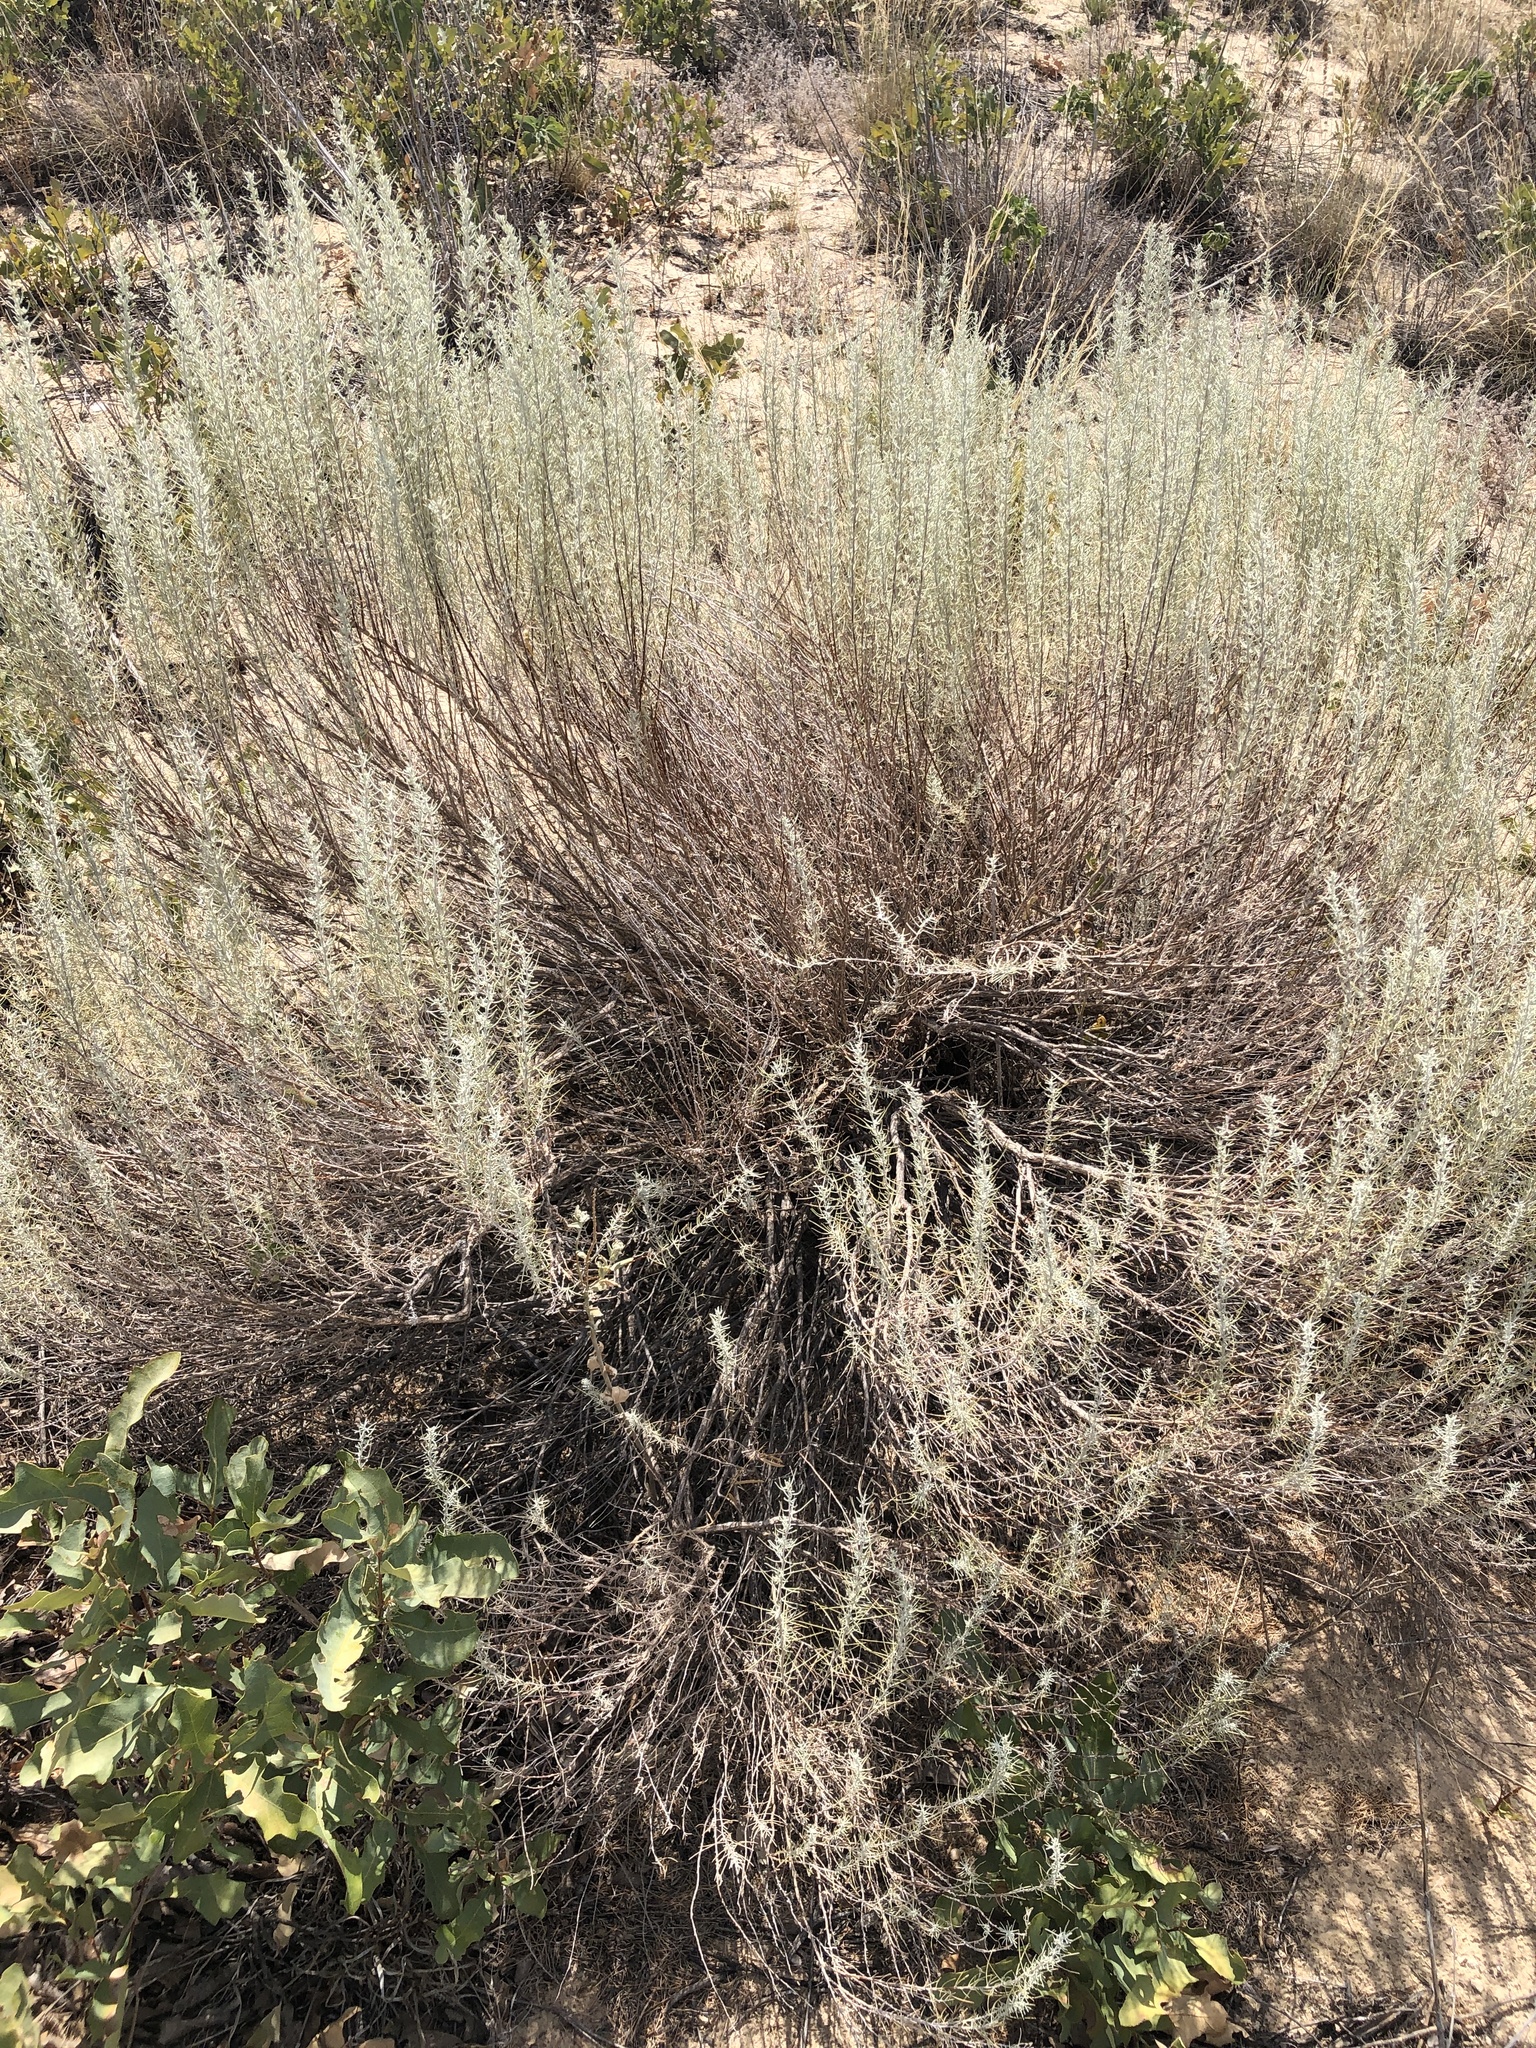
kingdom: Plantae
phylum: Tracheophyta
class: Magnoliopsida
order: Asterales
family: Asteraceae
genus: Artemisia
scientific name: Artemisia filifolia
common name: Sand-sage
